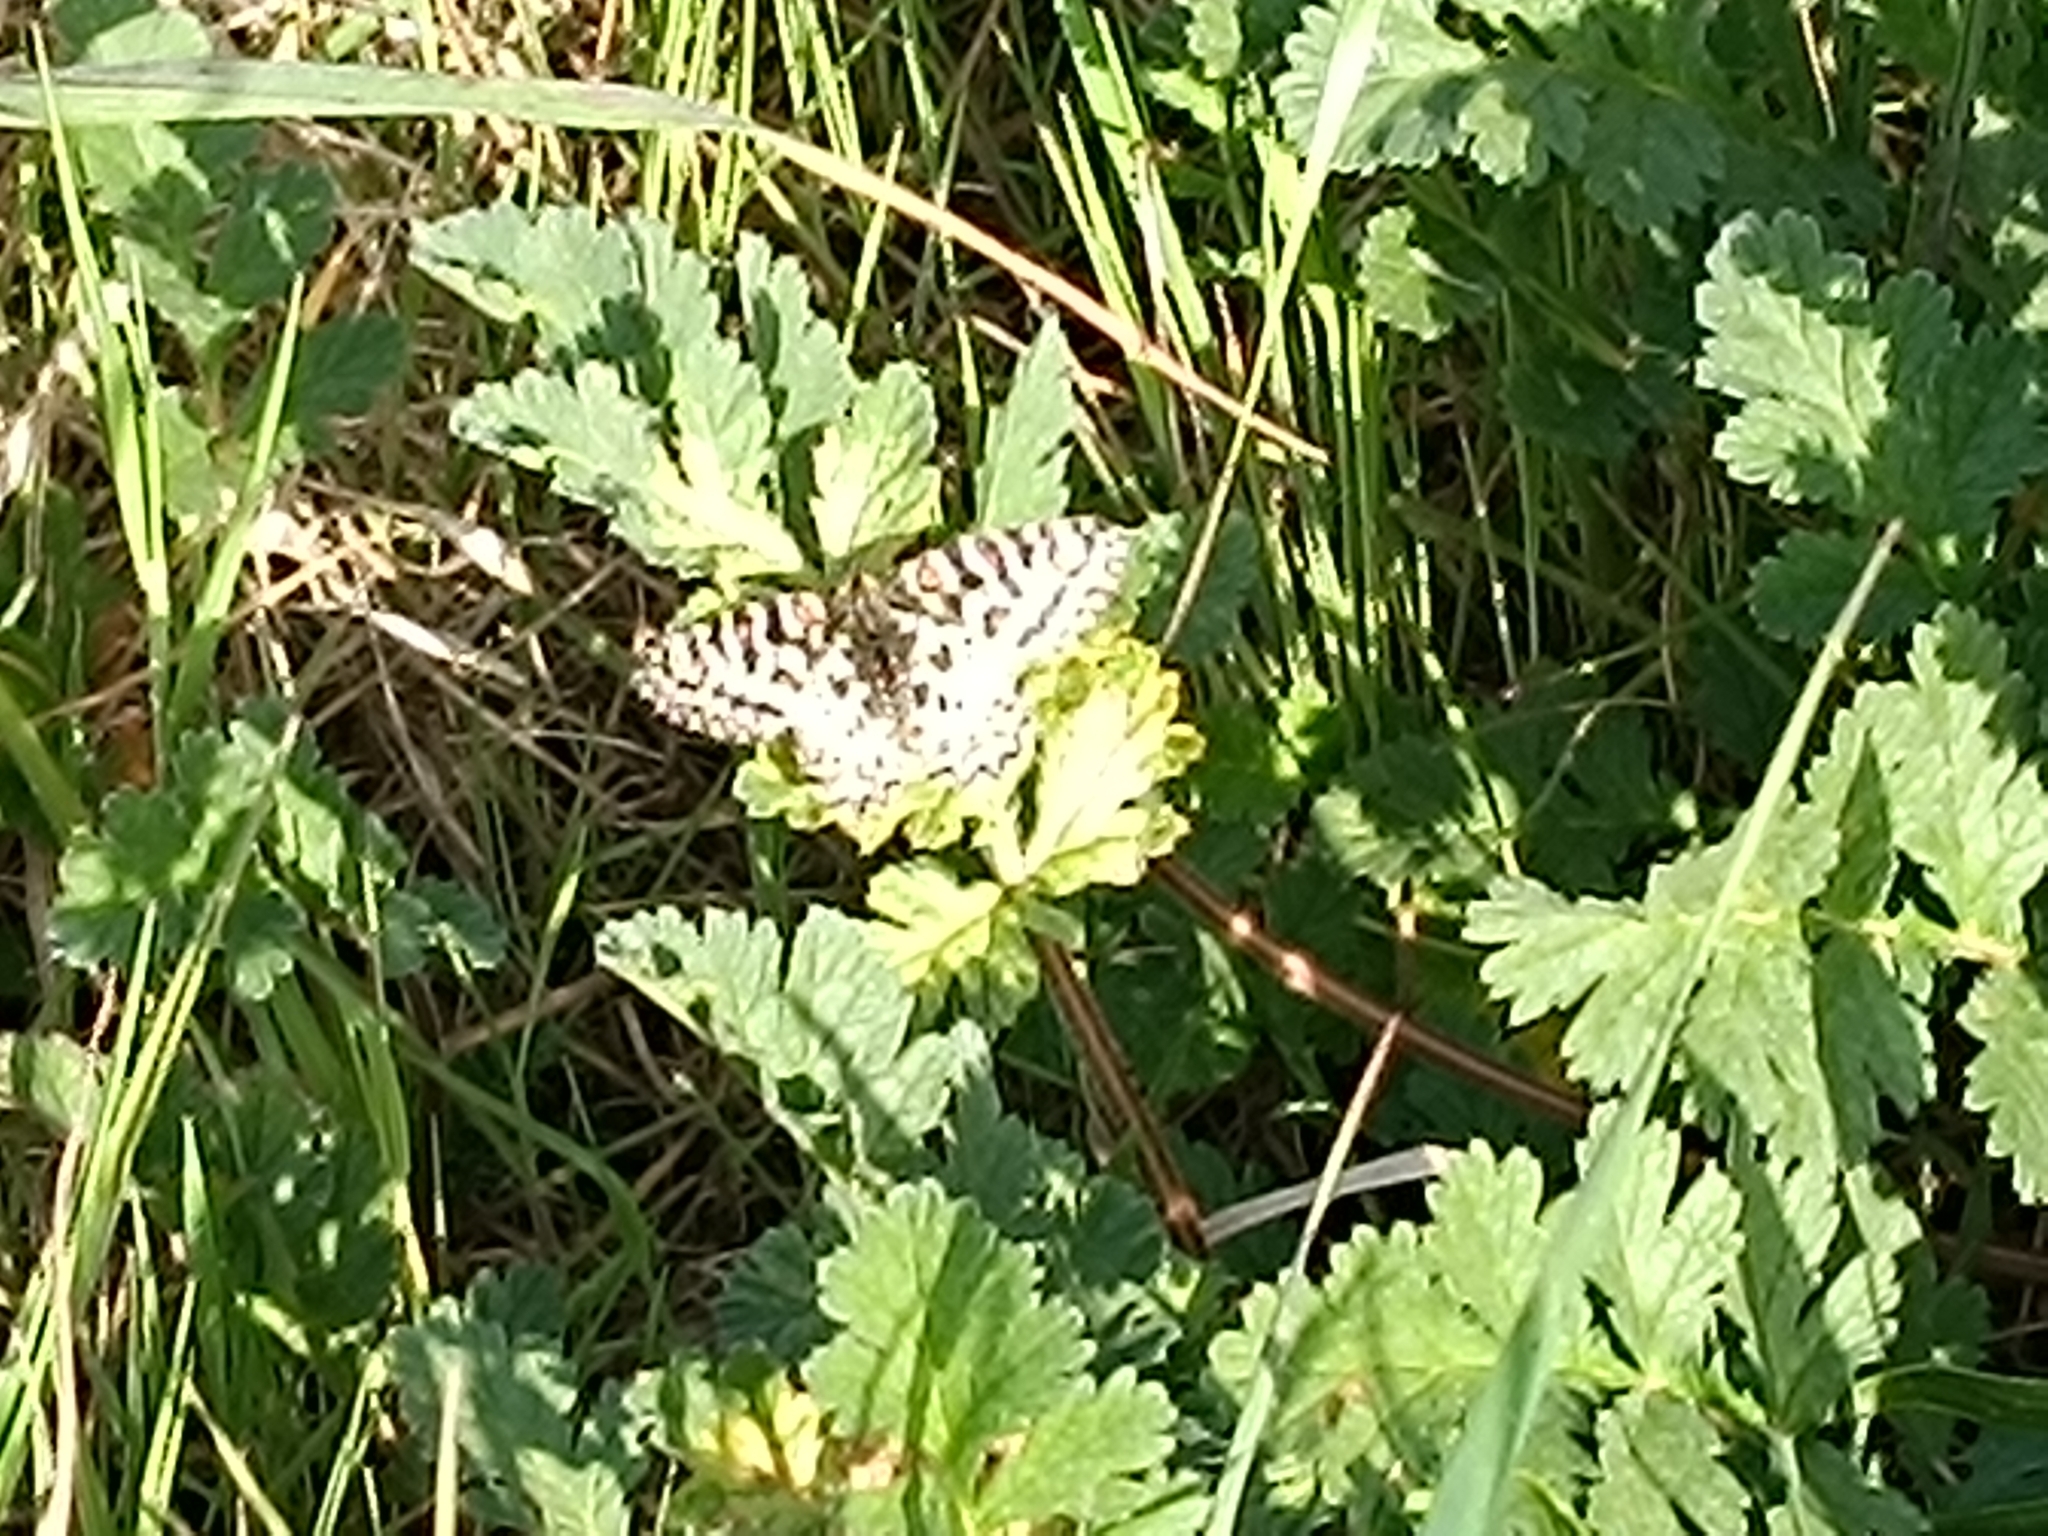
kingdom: Animalia
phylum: Arthropoda
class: Insecta
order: Lepidoptera
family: Papilionidae
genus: Zerynthia
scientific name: Zerynthia rumina
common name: Spanish festoon
